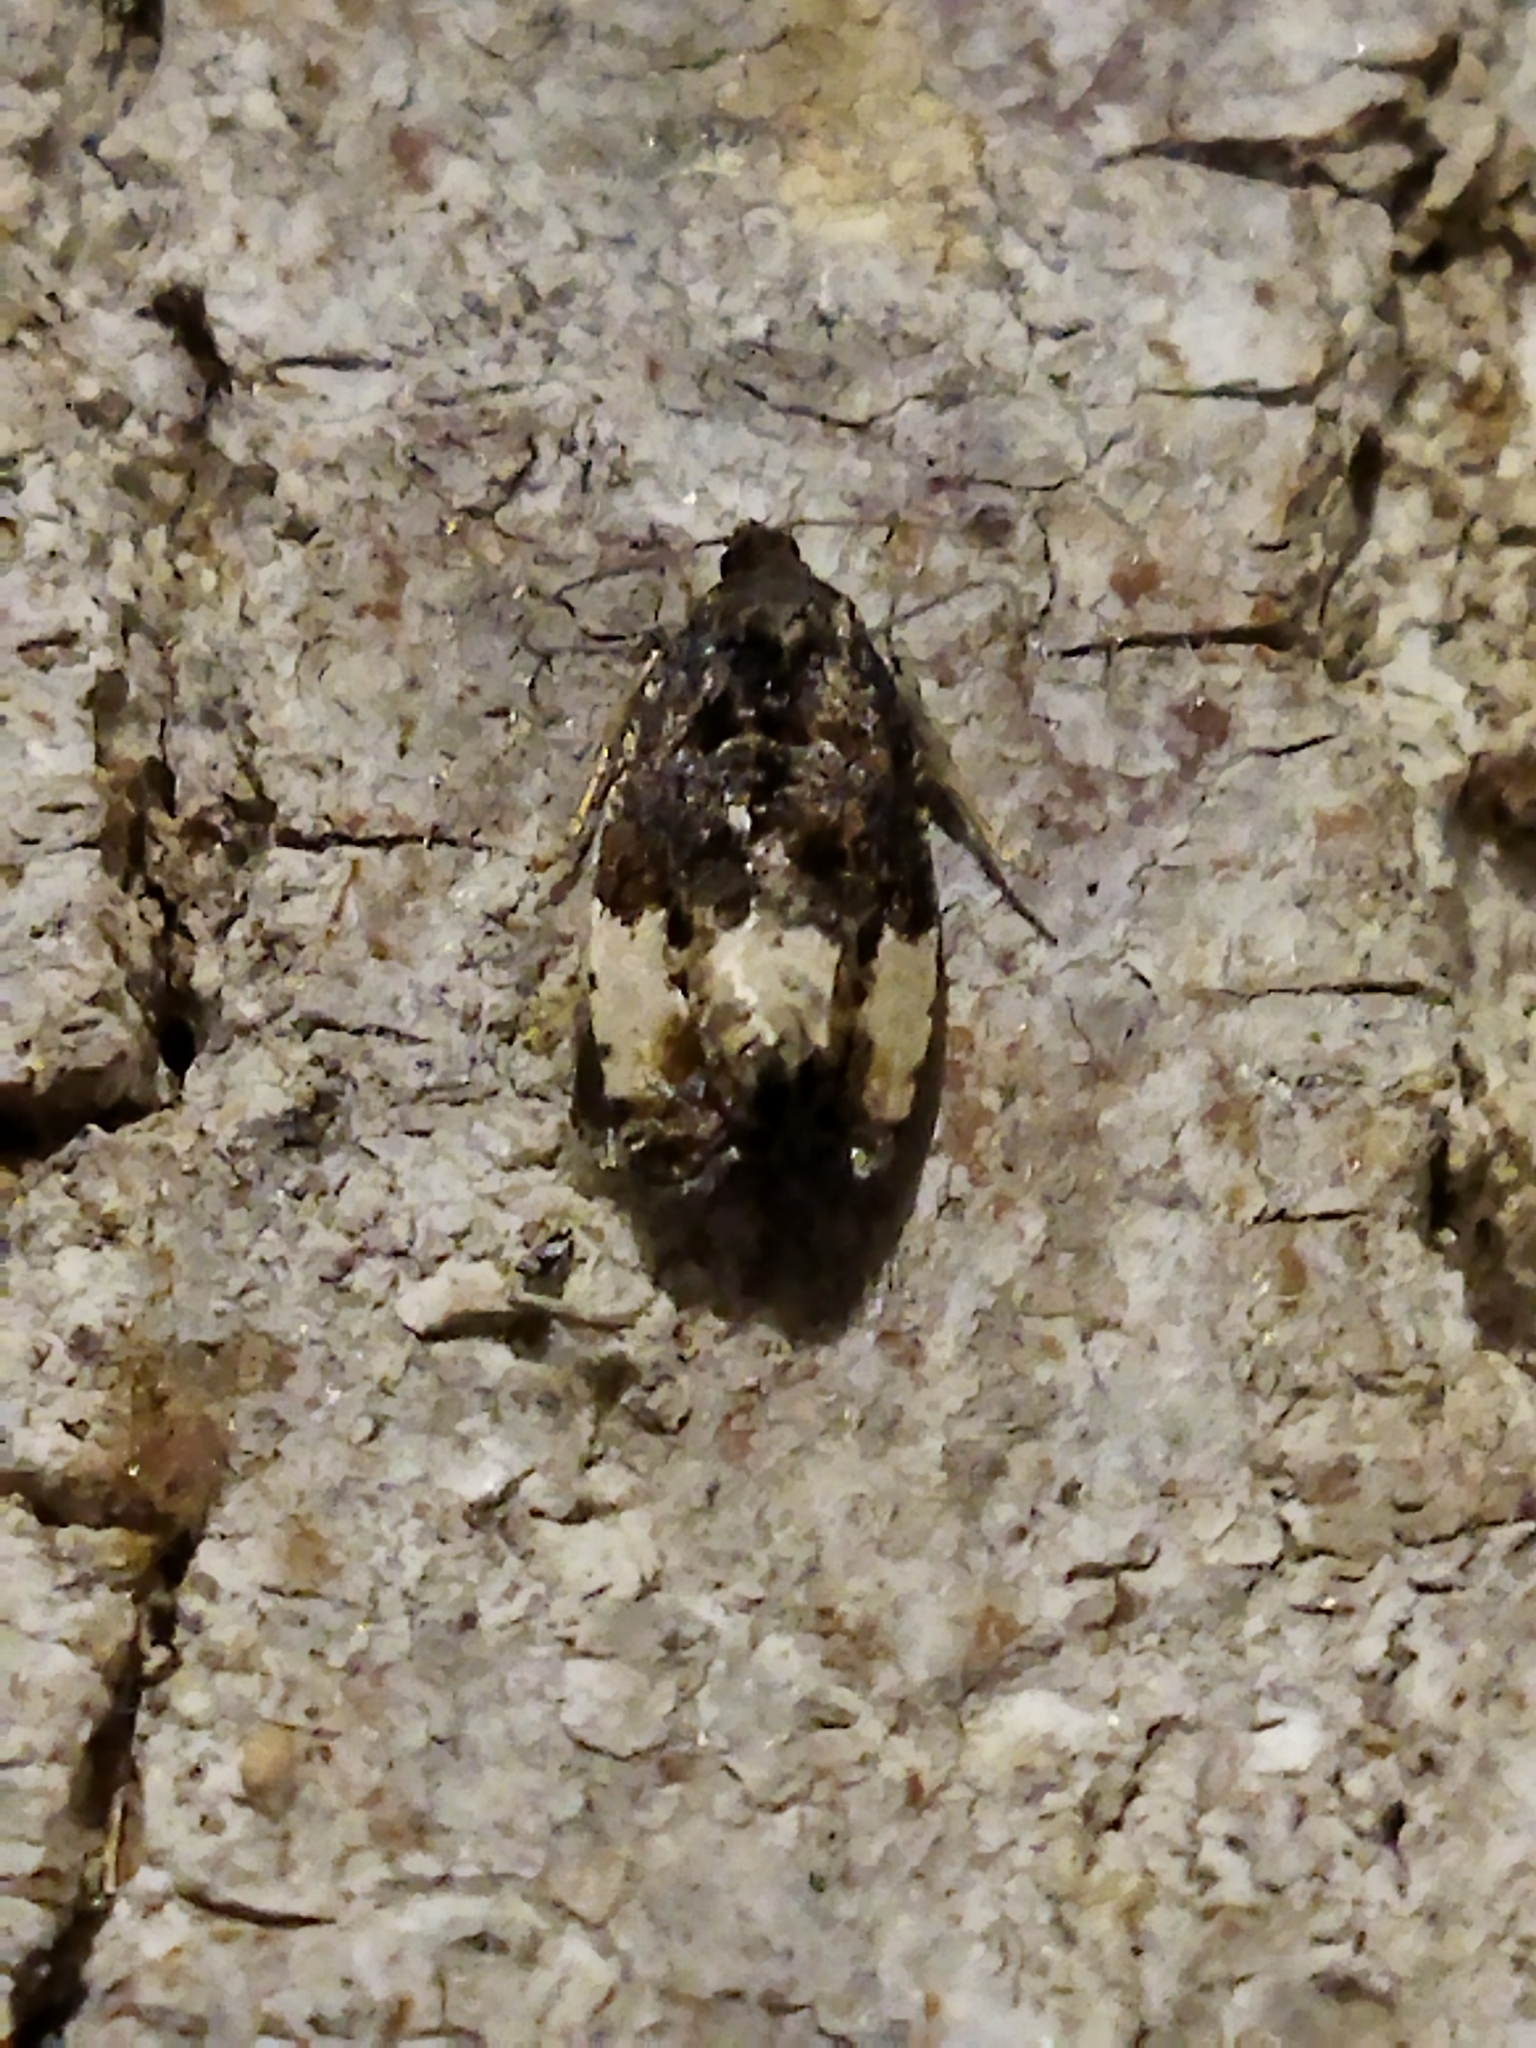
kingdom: Animalia
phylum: Arthropoda
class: Insecta
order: Lepidoptera
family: Tortricidae
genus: Hedya
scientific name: Hedya pruniana
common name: Plum tortrix
